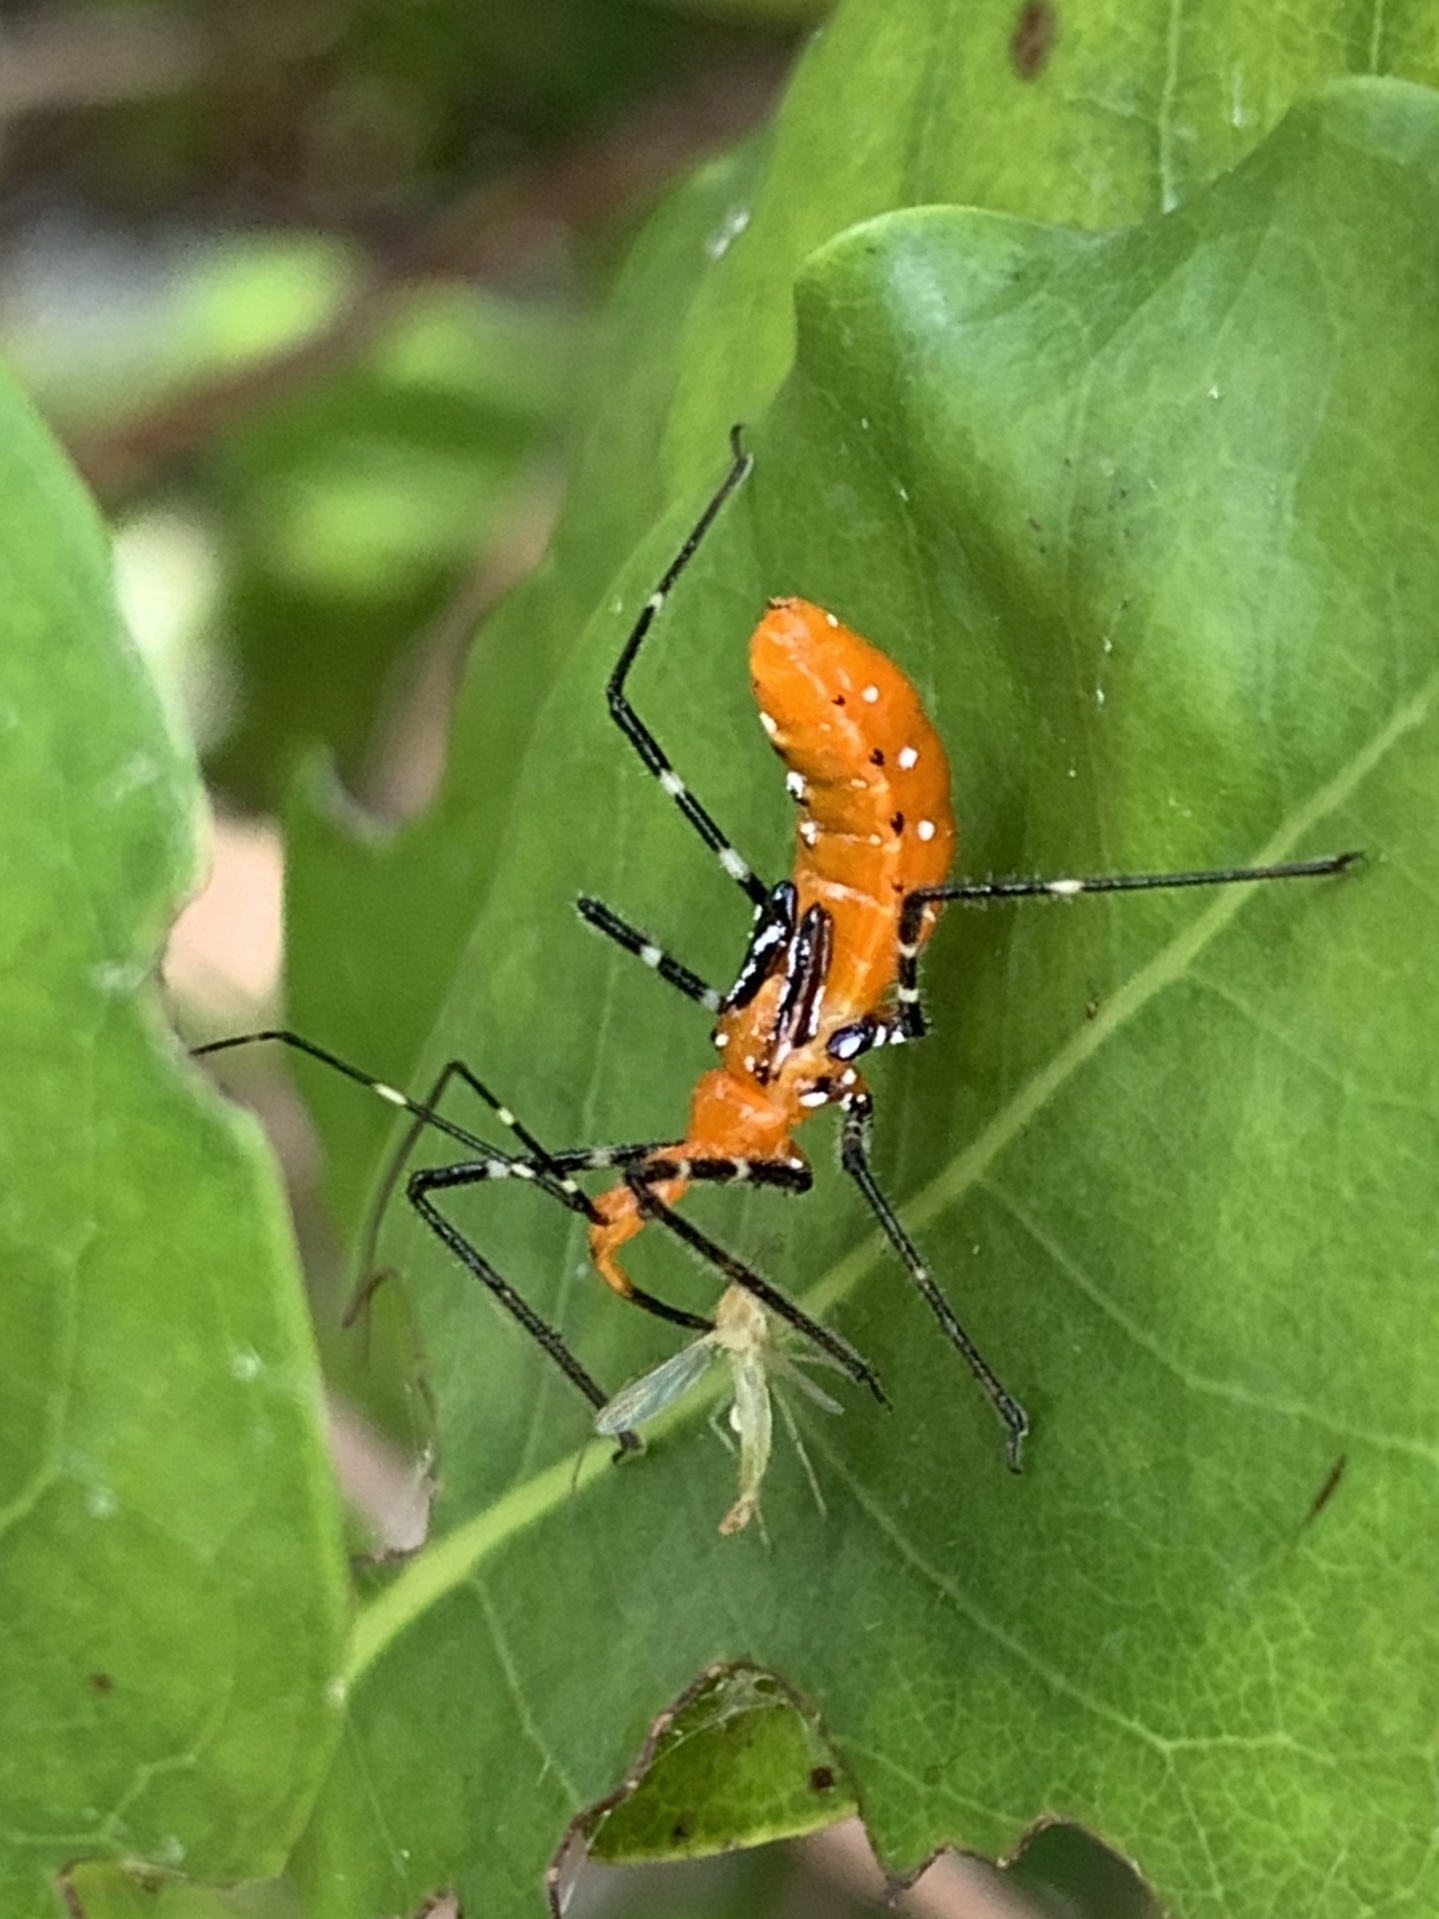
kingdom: Animalia
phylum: Arthropoda
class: Insecta
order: Hemiptera
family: Reduviidae
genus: Zelus
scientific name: Zelus longipes
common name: Milkweed assassin bug
